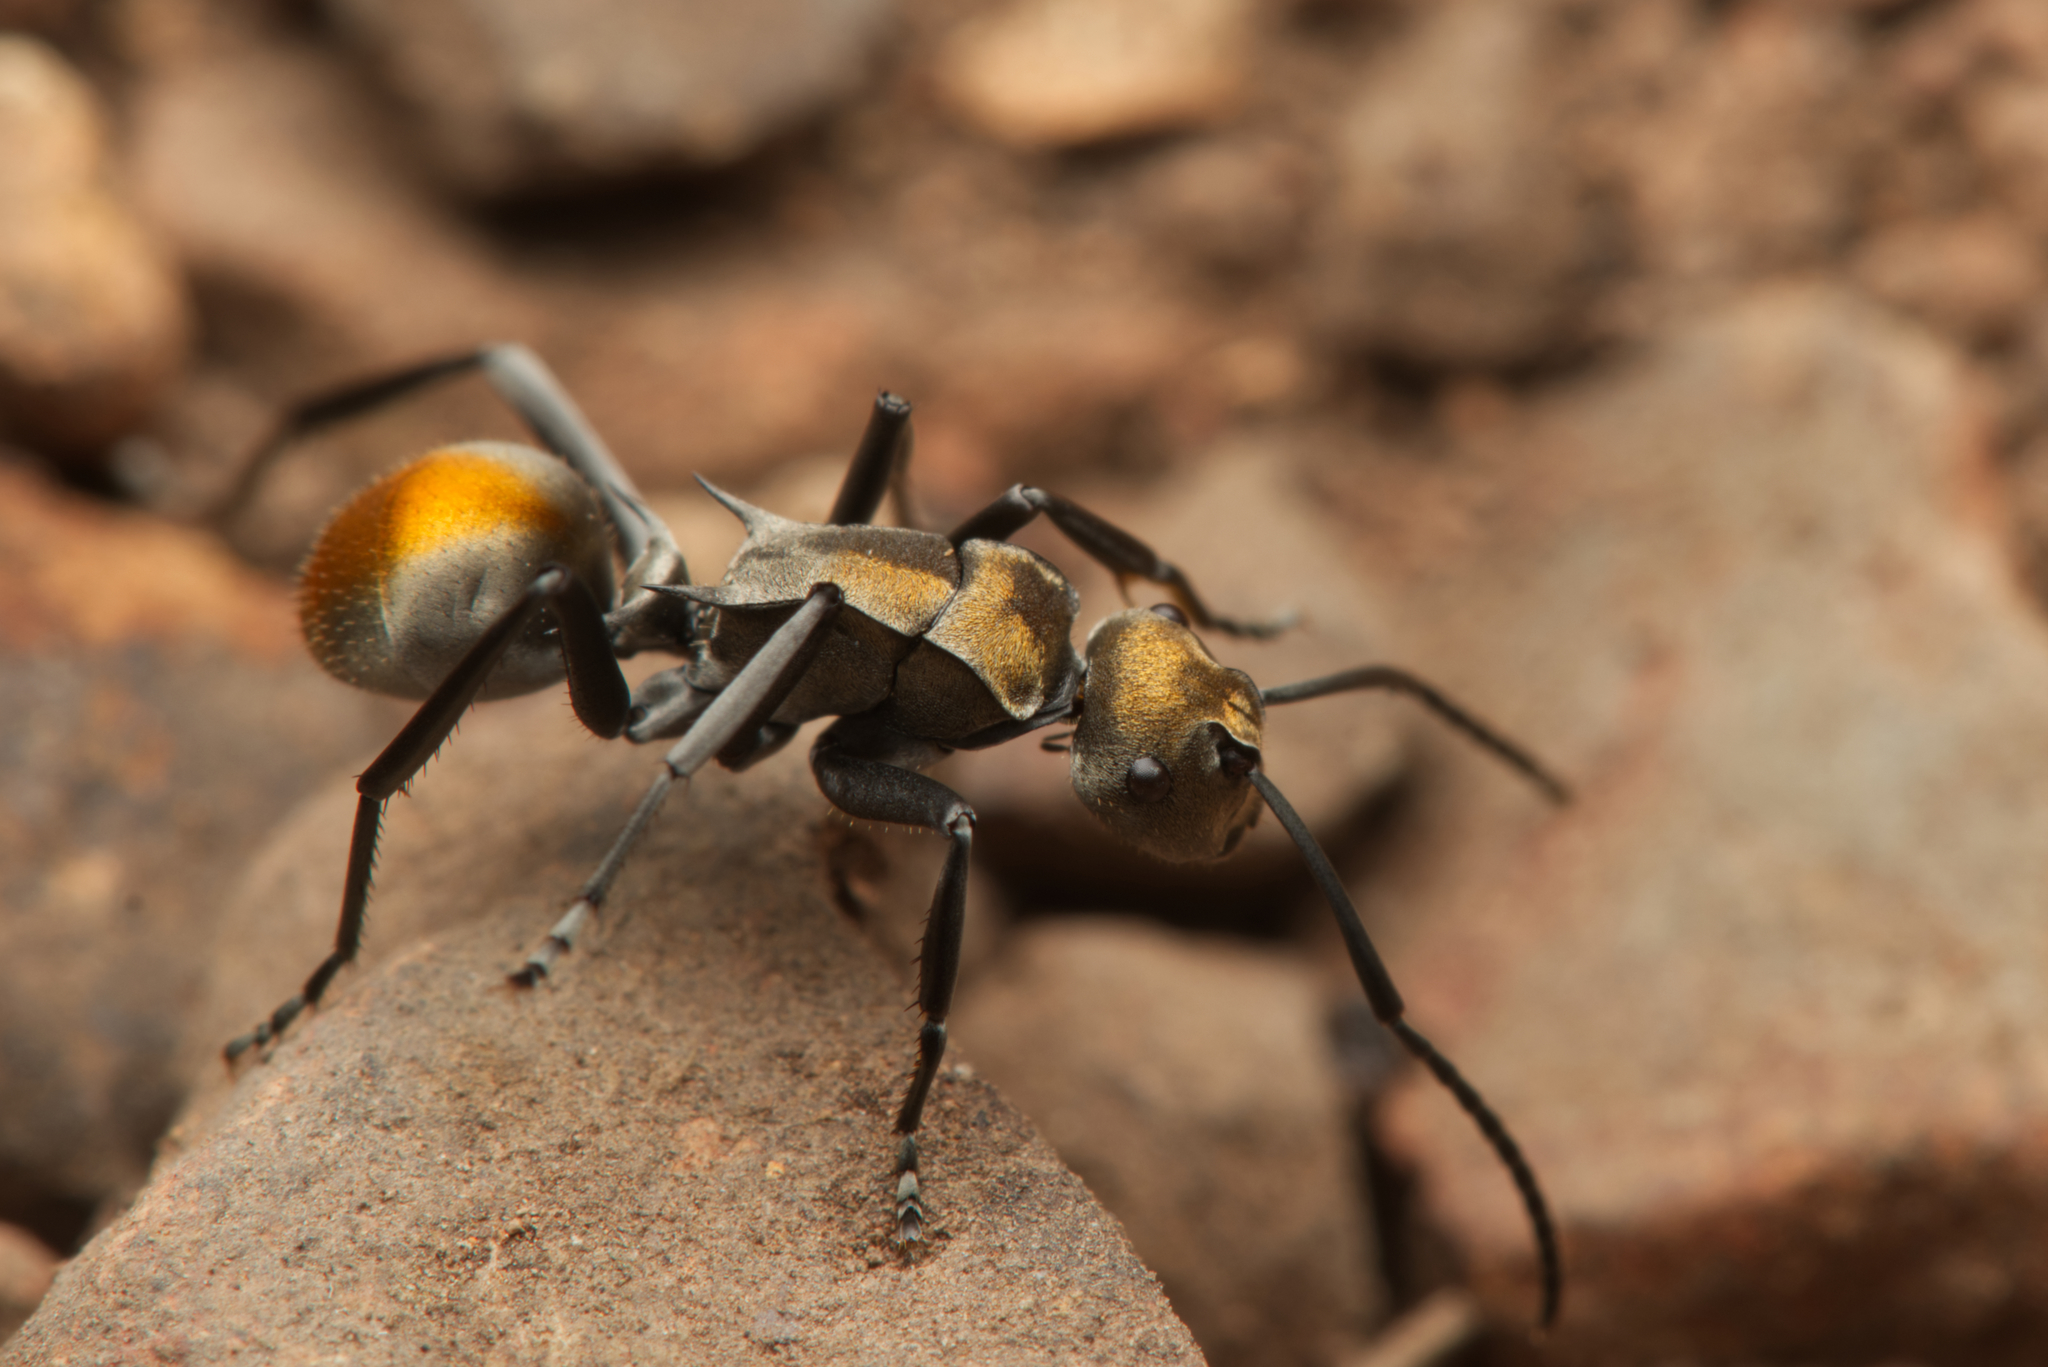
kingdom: Animalia
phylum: Arthropoda
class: Insecta
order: Hymenoptera
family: Formicidae
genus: Polyrhachis
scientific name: Polyrhachis trapezoidea
